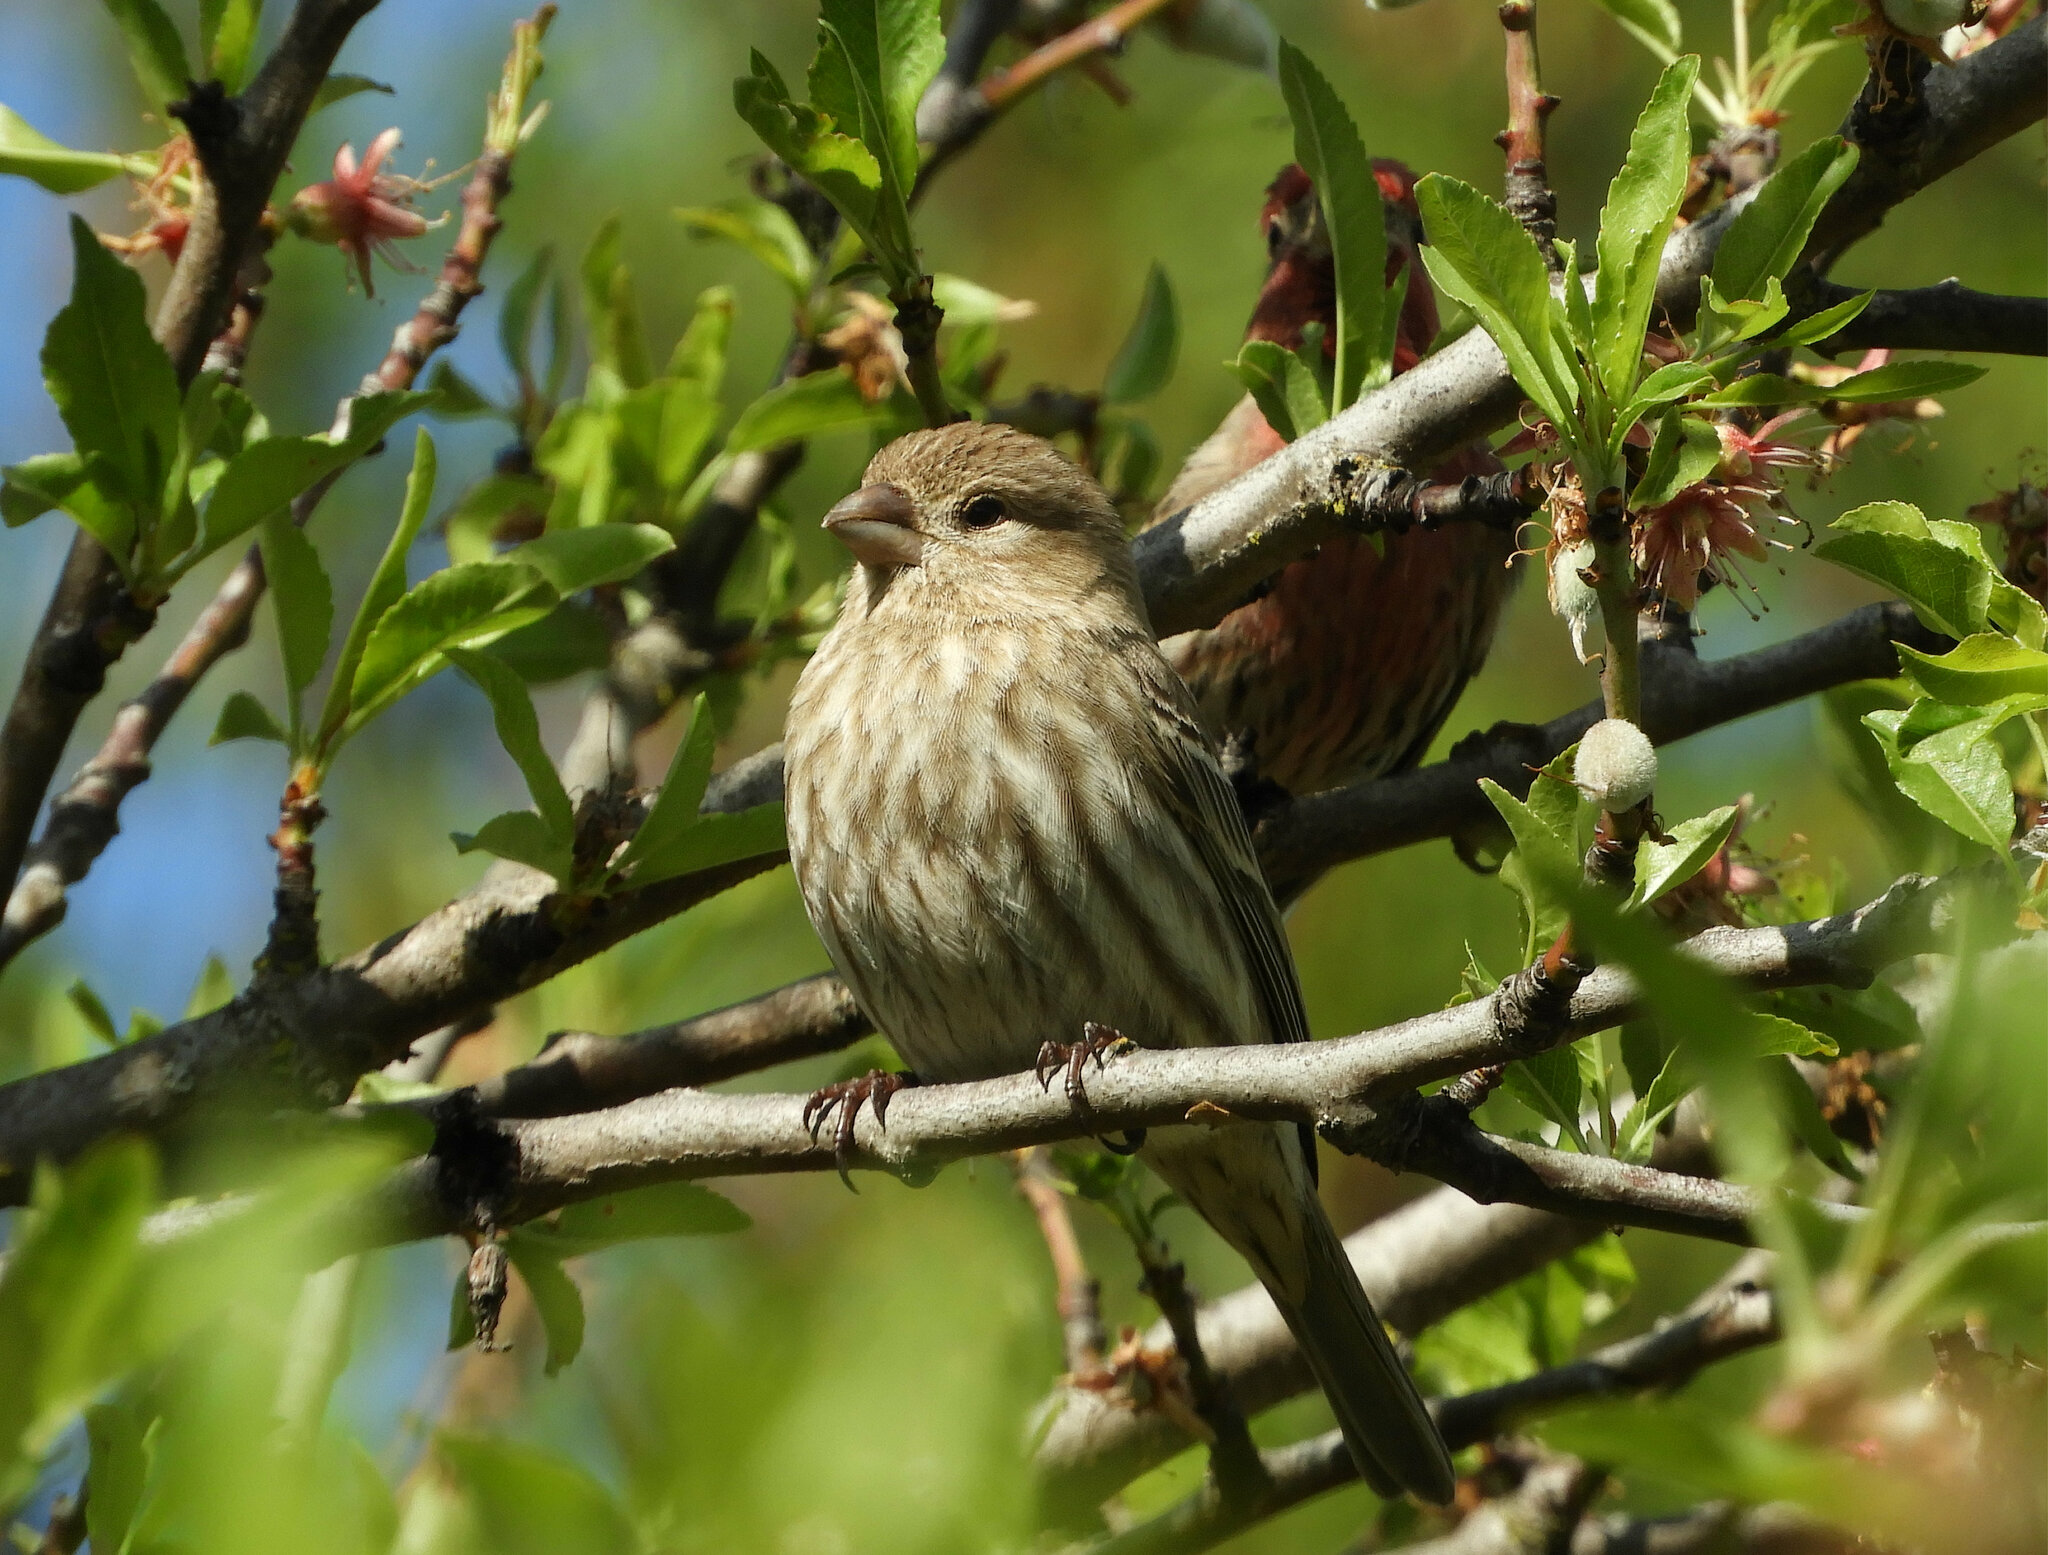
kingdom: Animalia
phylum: Chordata
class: Aves
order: Passeriformes
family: Fringillidae
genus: Haemorhous
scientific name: Haemorhous mexicanus
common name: House finch
